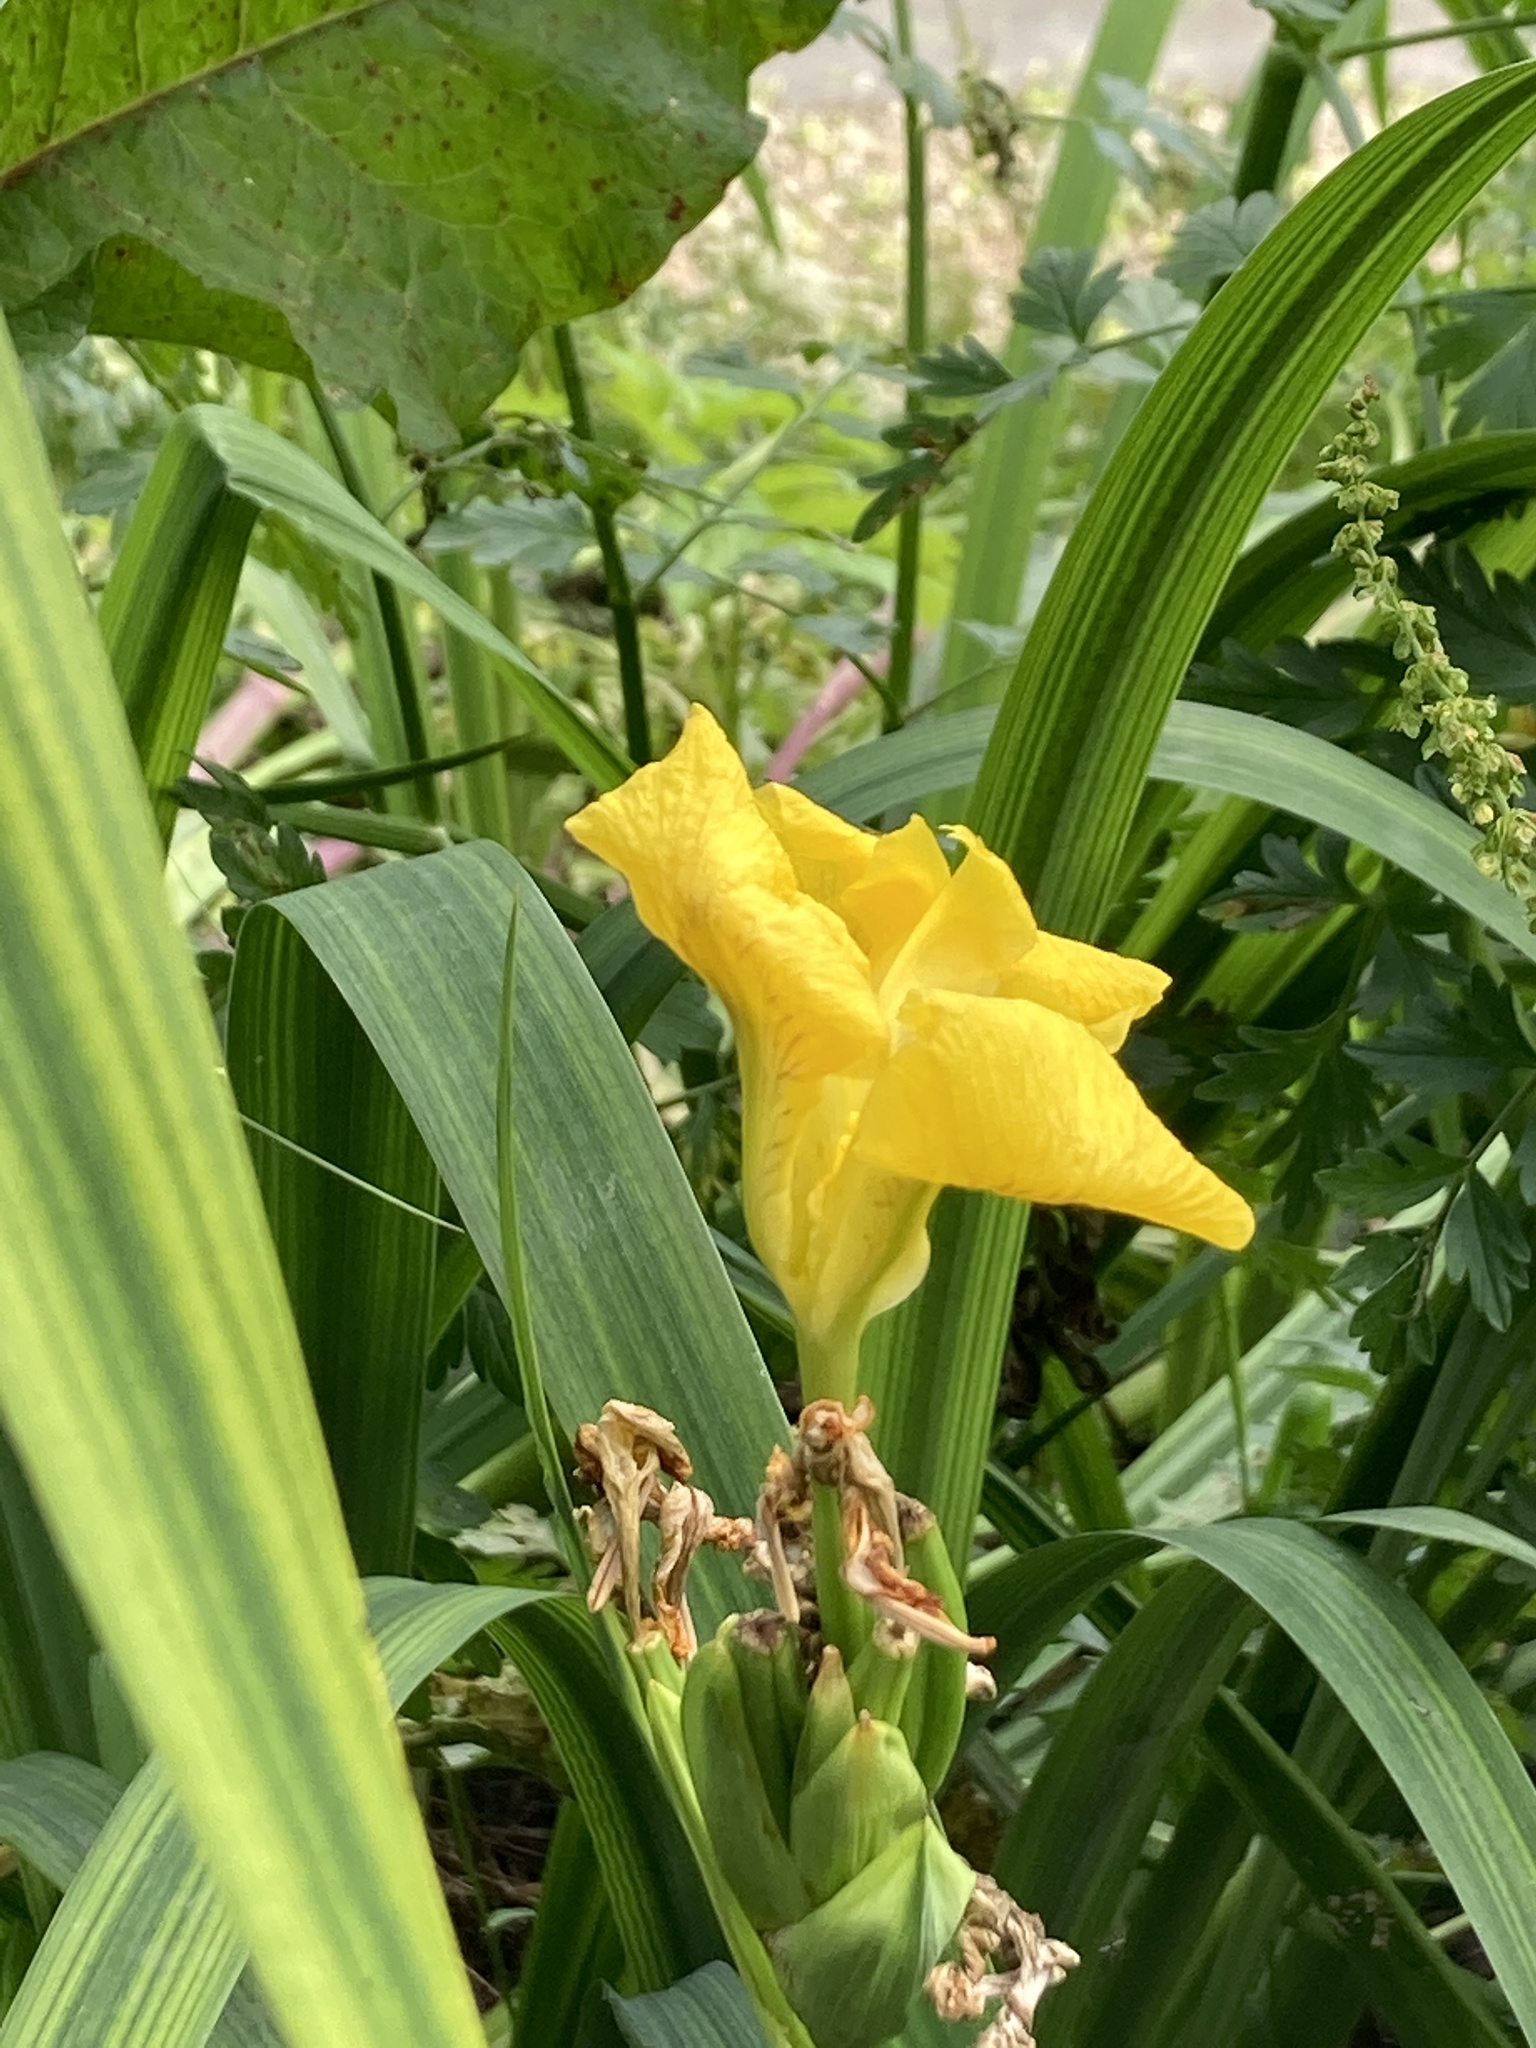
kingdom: Plantae
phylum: Tracheophyta
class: Liliopsida
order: Asparagales
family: Iridaceae
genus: Iris
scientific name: Iris pseudacorus
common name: Yellow flag
